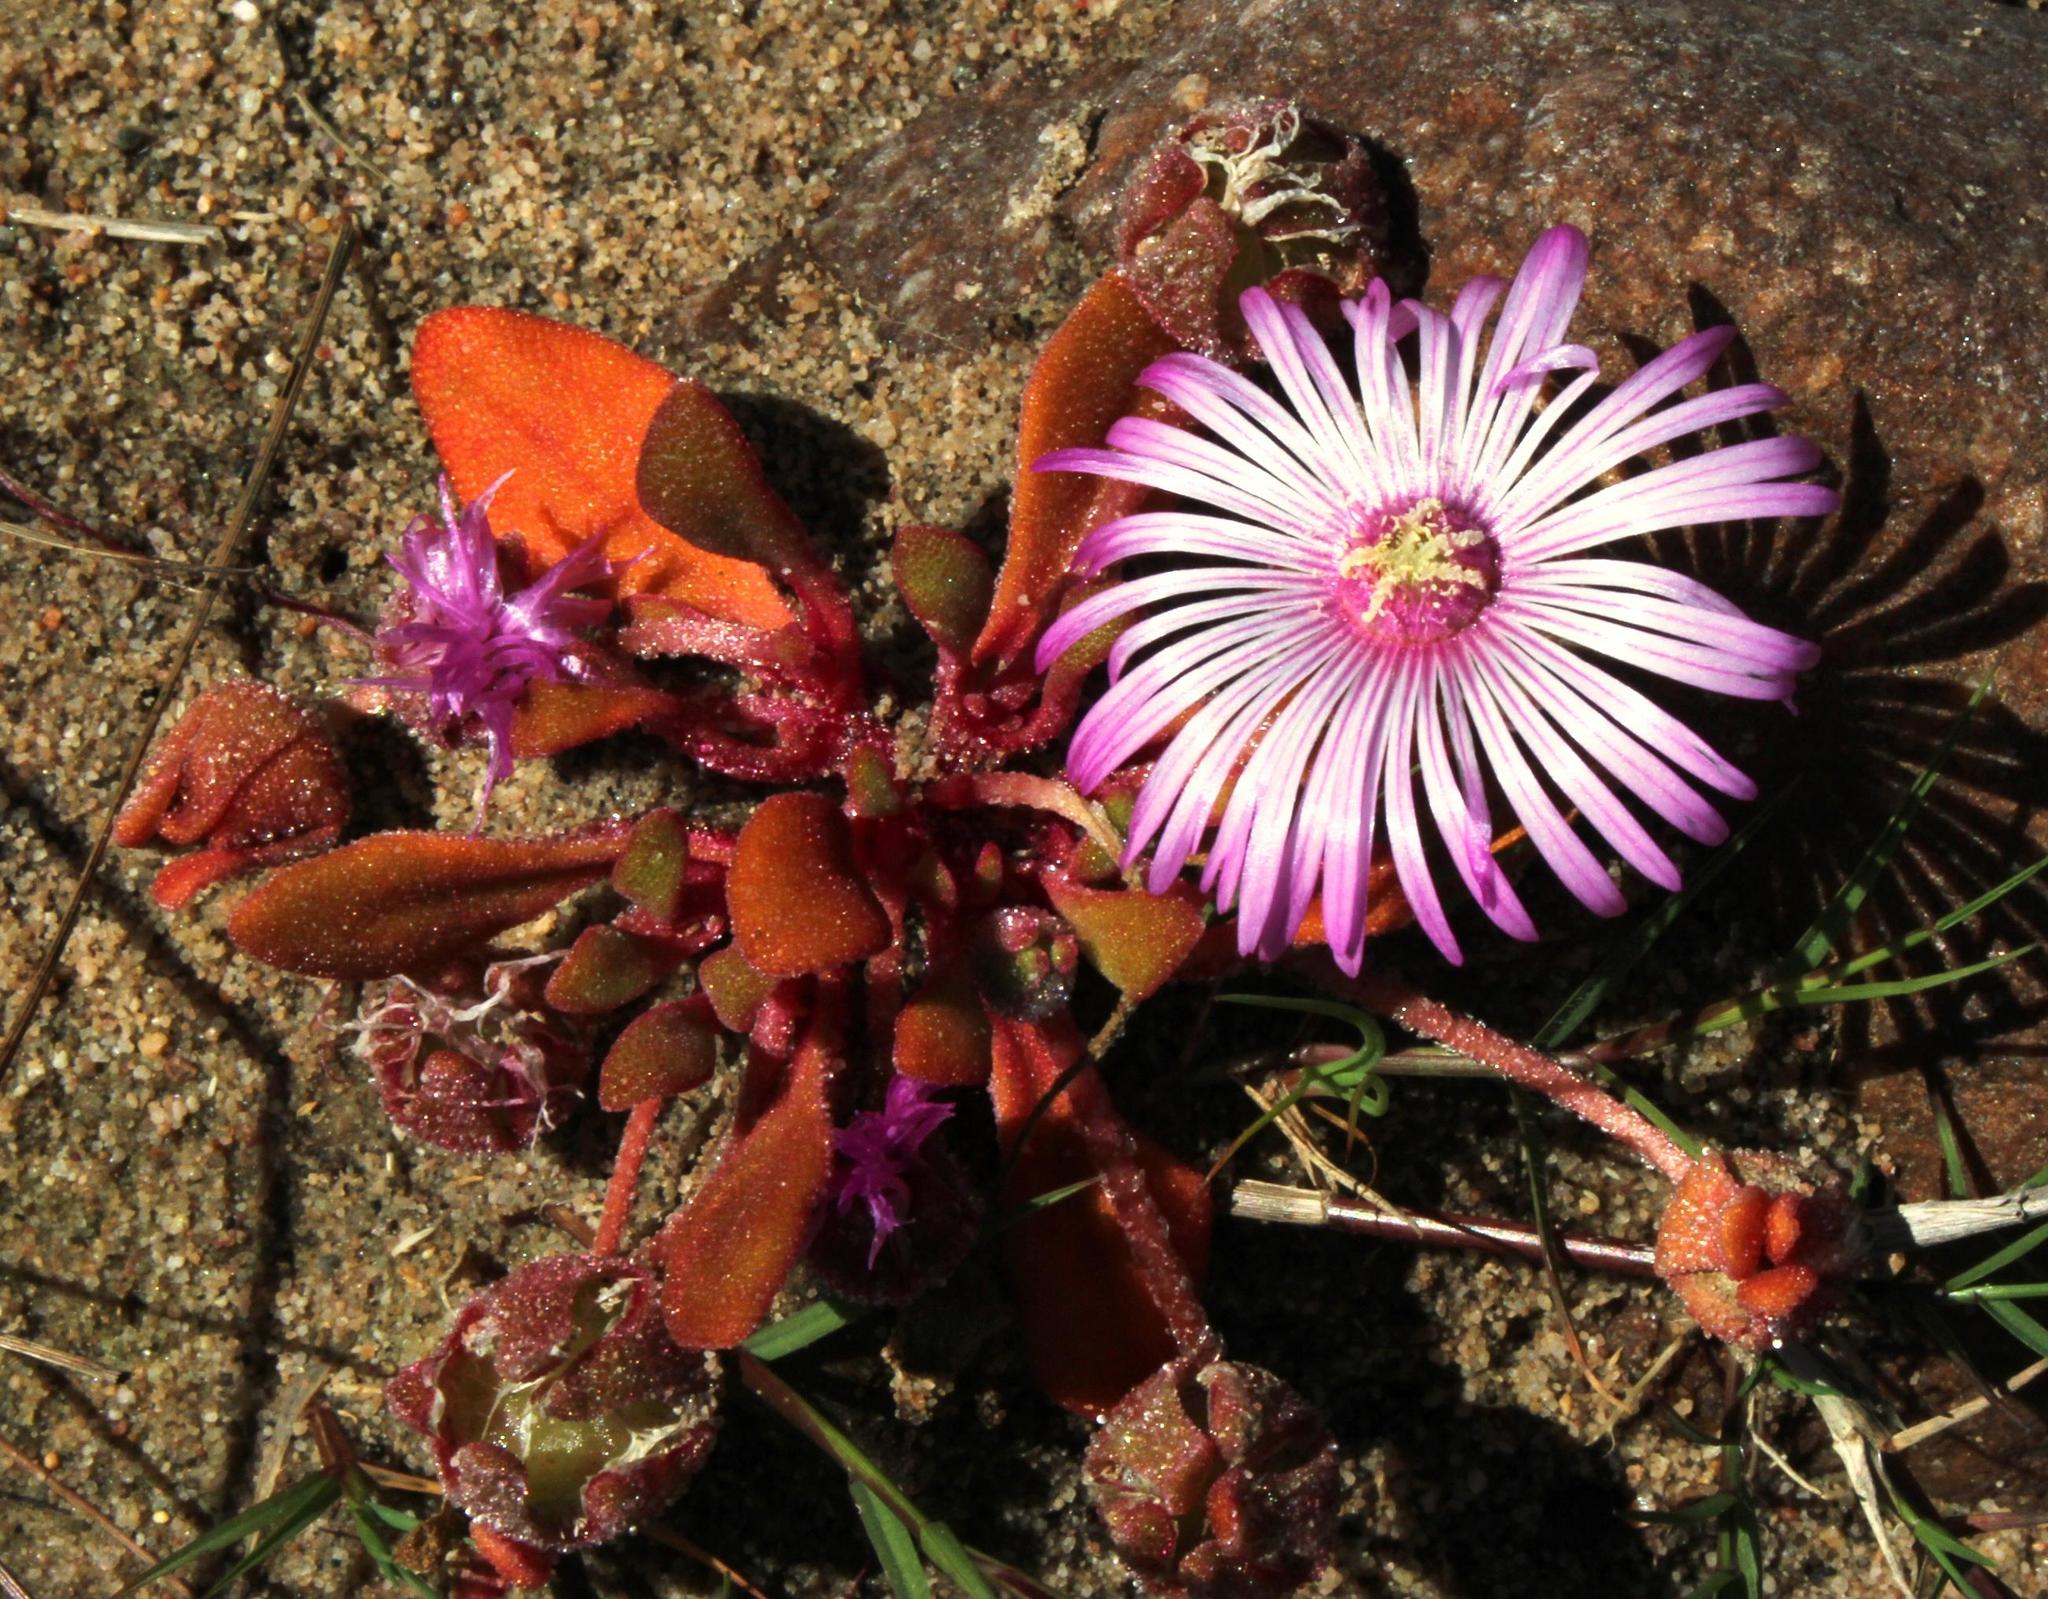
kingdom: Plantae
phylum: Tracheophyta
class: Magnoliopsida
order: Caryophyllales
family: Aizoaceae
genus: Cleretum
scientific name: Cleretum bellidiforme
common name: Livingstone daisy
